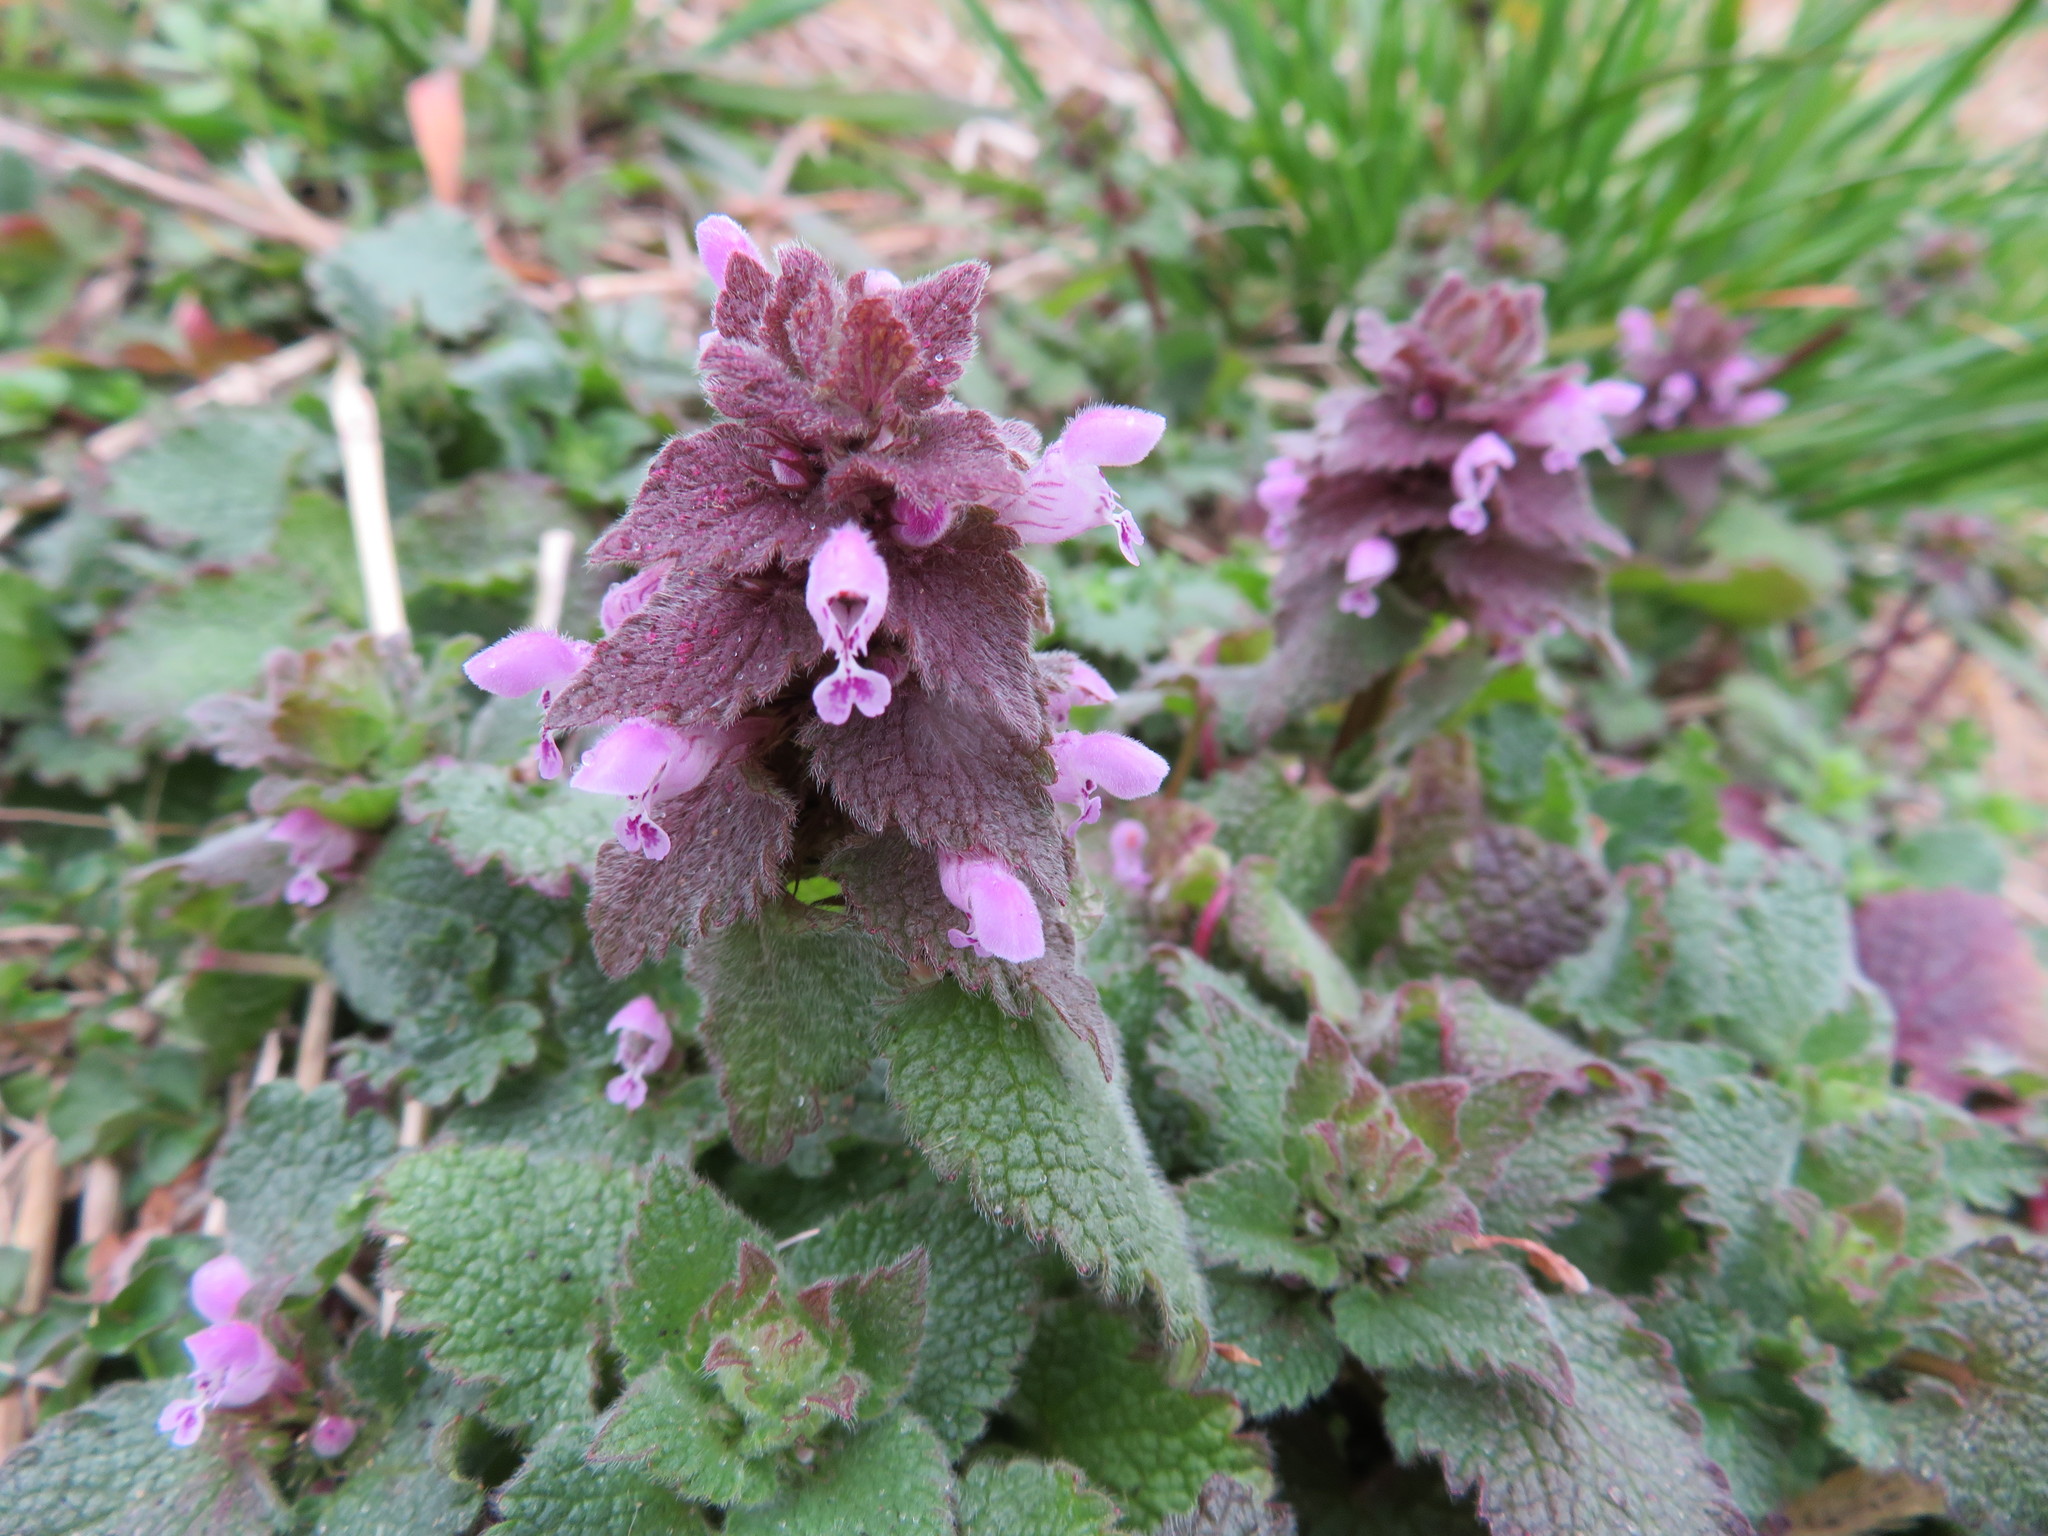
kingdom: Plantae
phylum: Tracheophyta
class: Magnoliopsida
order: Lamiales
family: Lamiaceae
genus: Lamium
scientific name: Lamium purpureum
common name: Red dead-nettle
